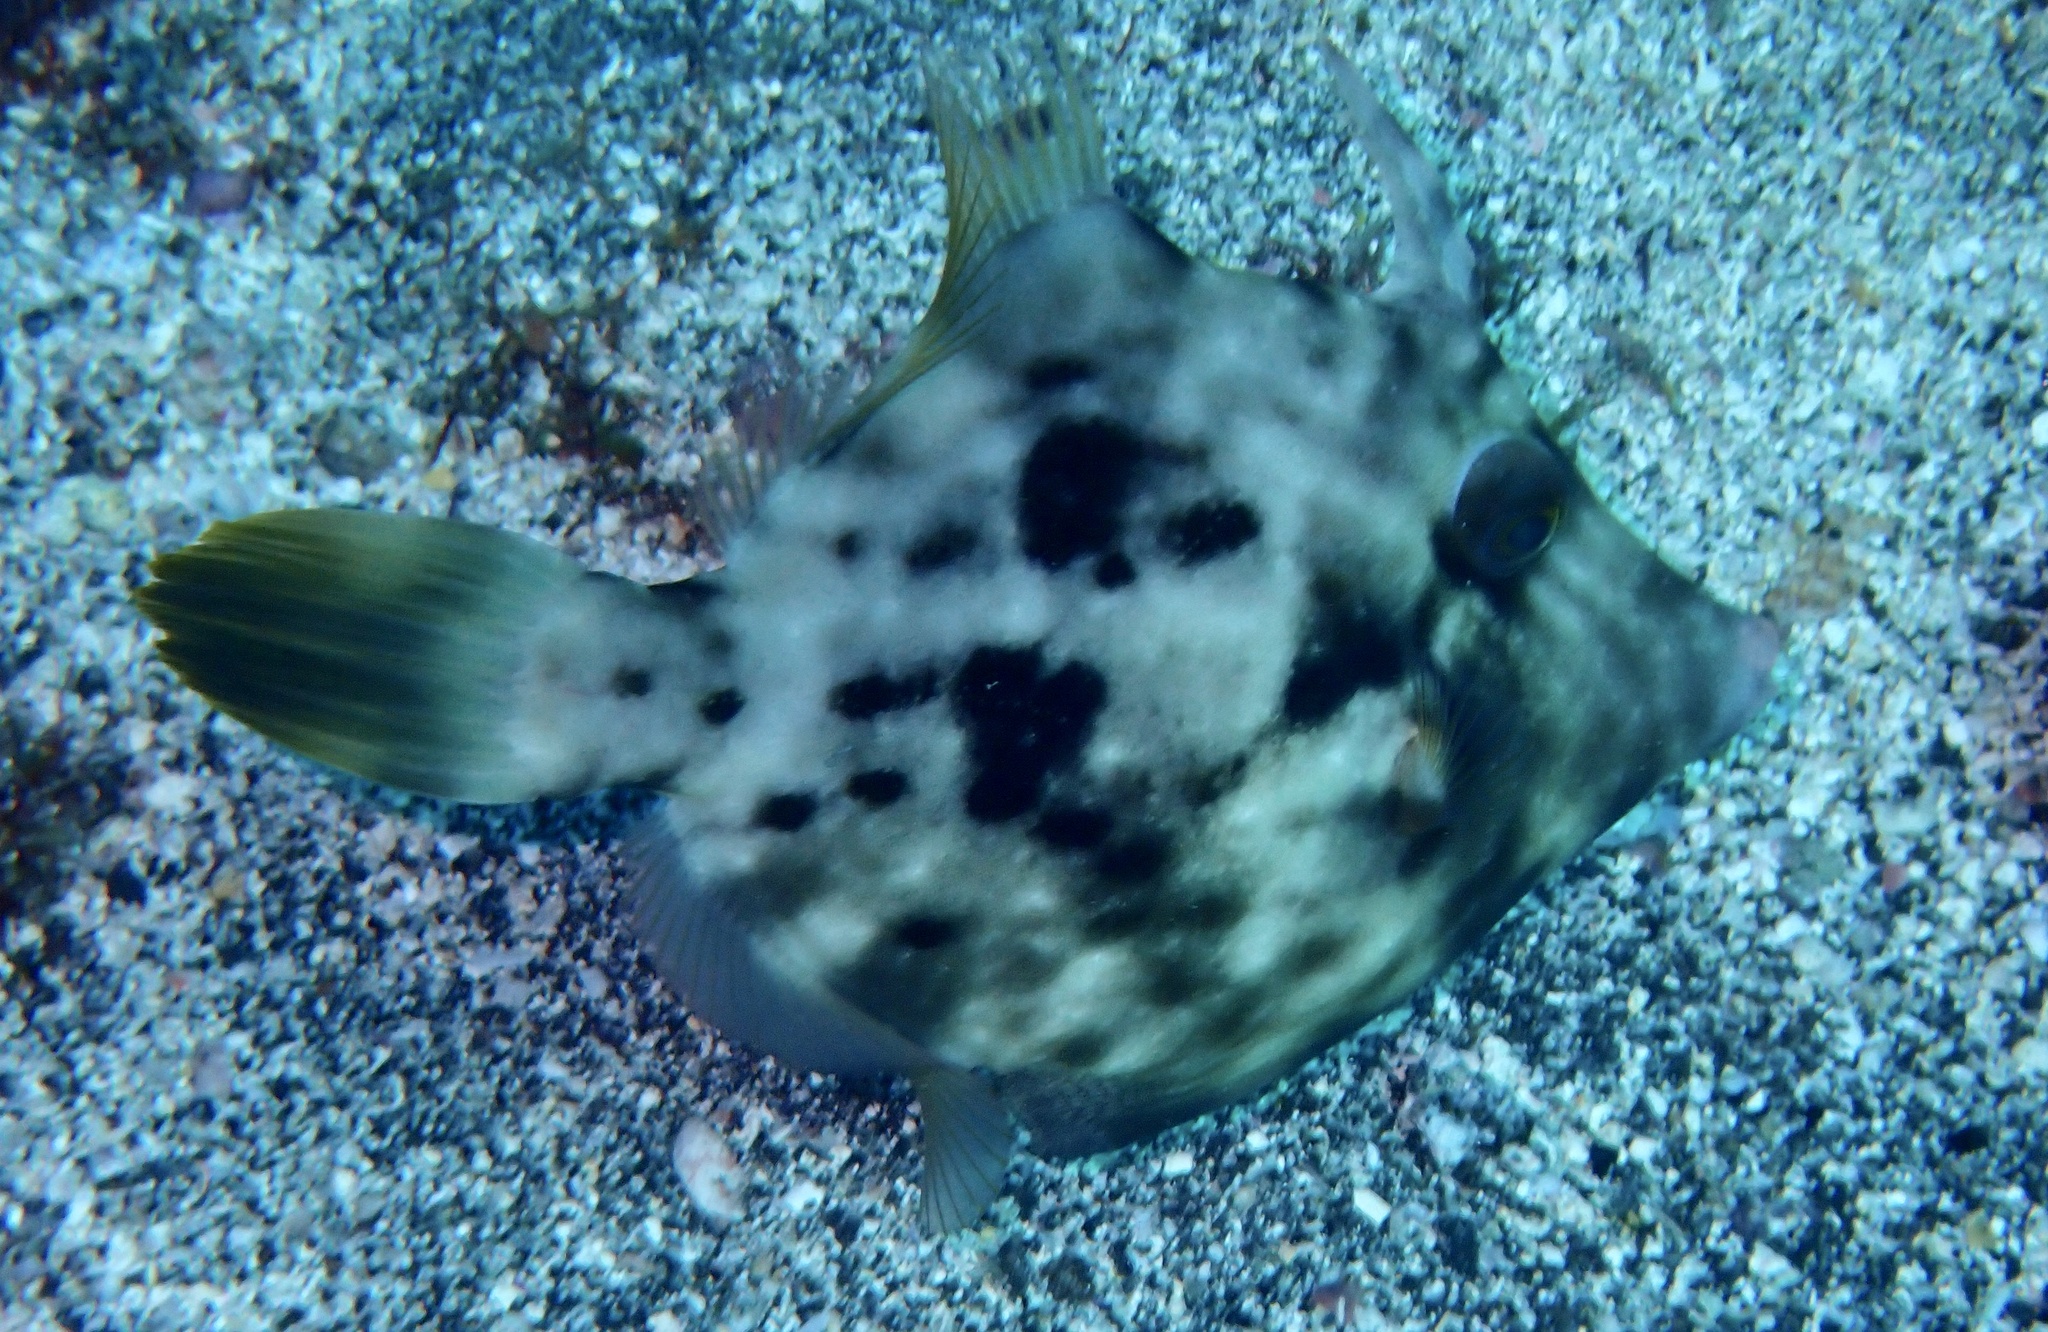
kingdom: Animalia
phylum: Chordata
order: Tetraodontiformes
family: Monacanthidae
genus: Stephanolepis
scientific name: Stephanolepis hispidus
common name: Planehead filefish
